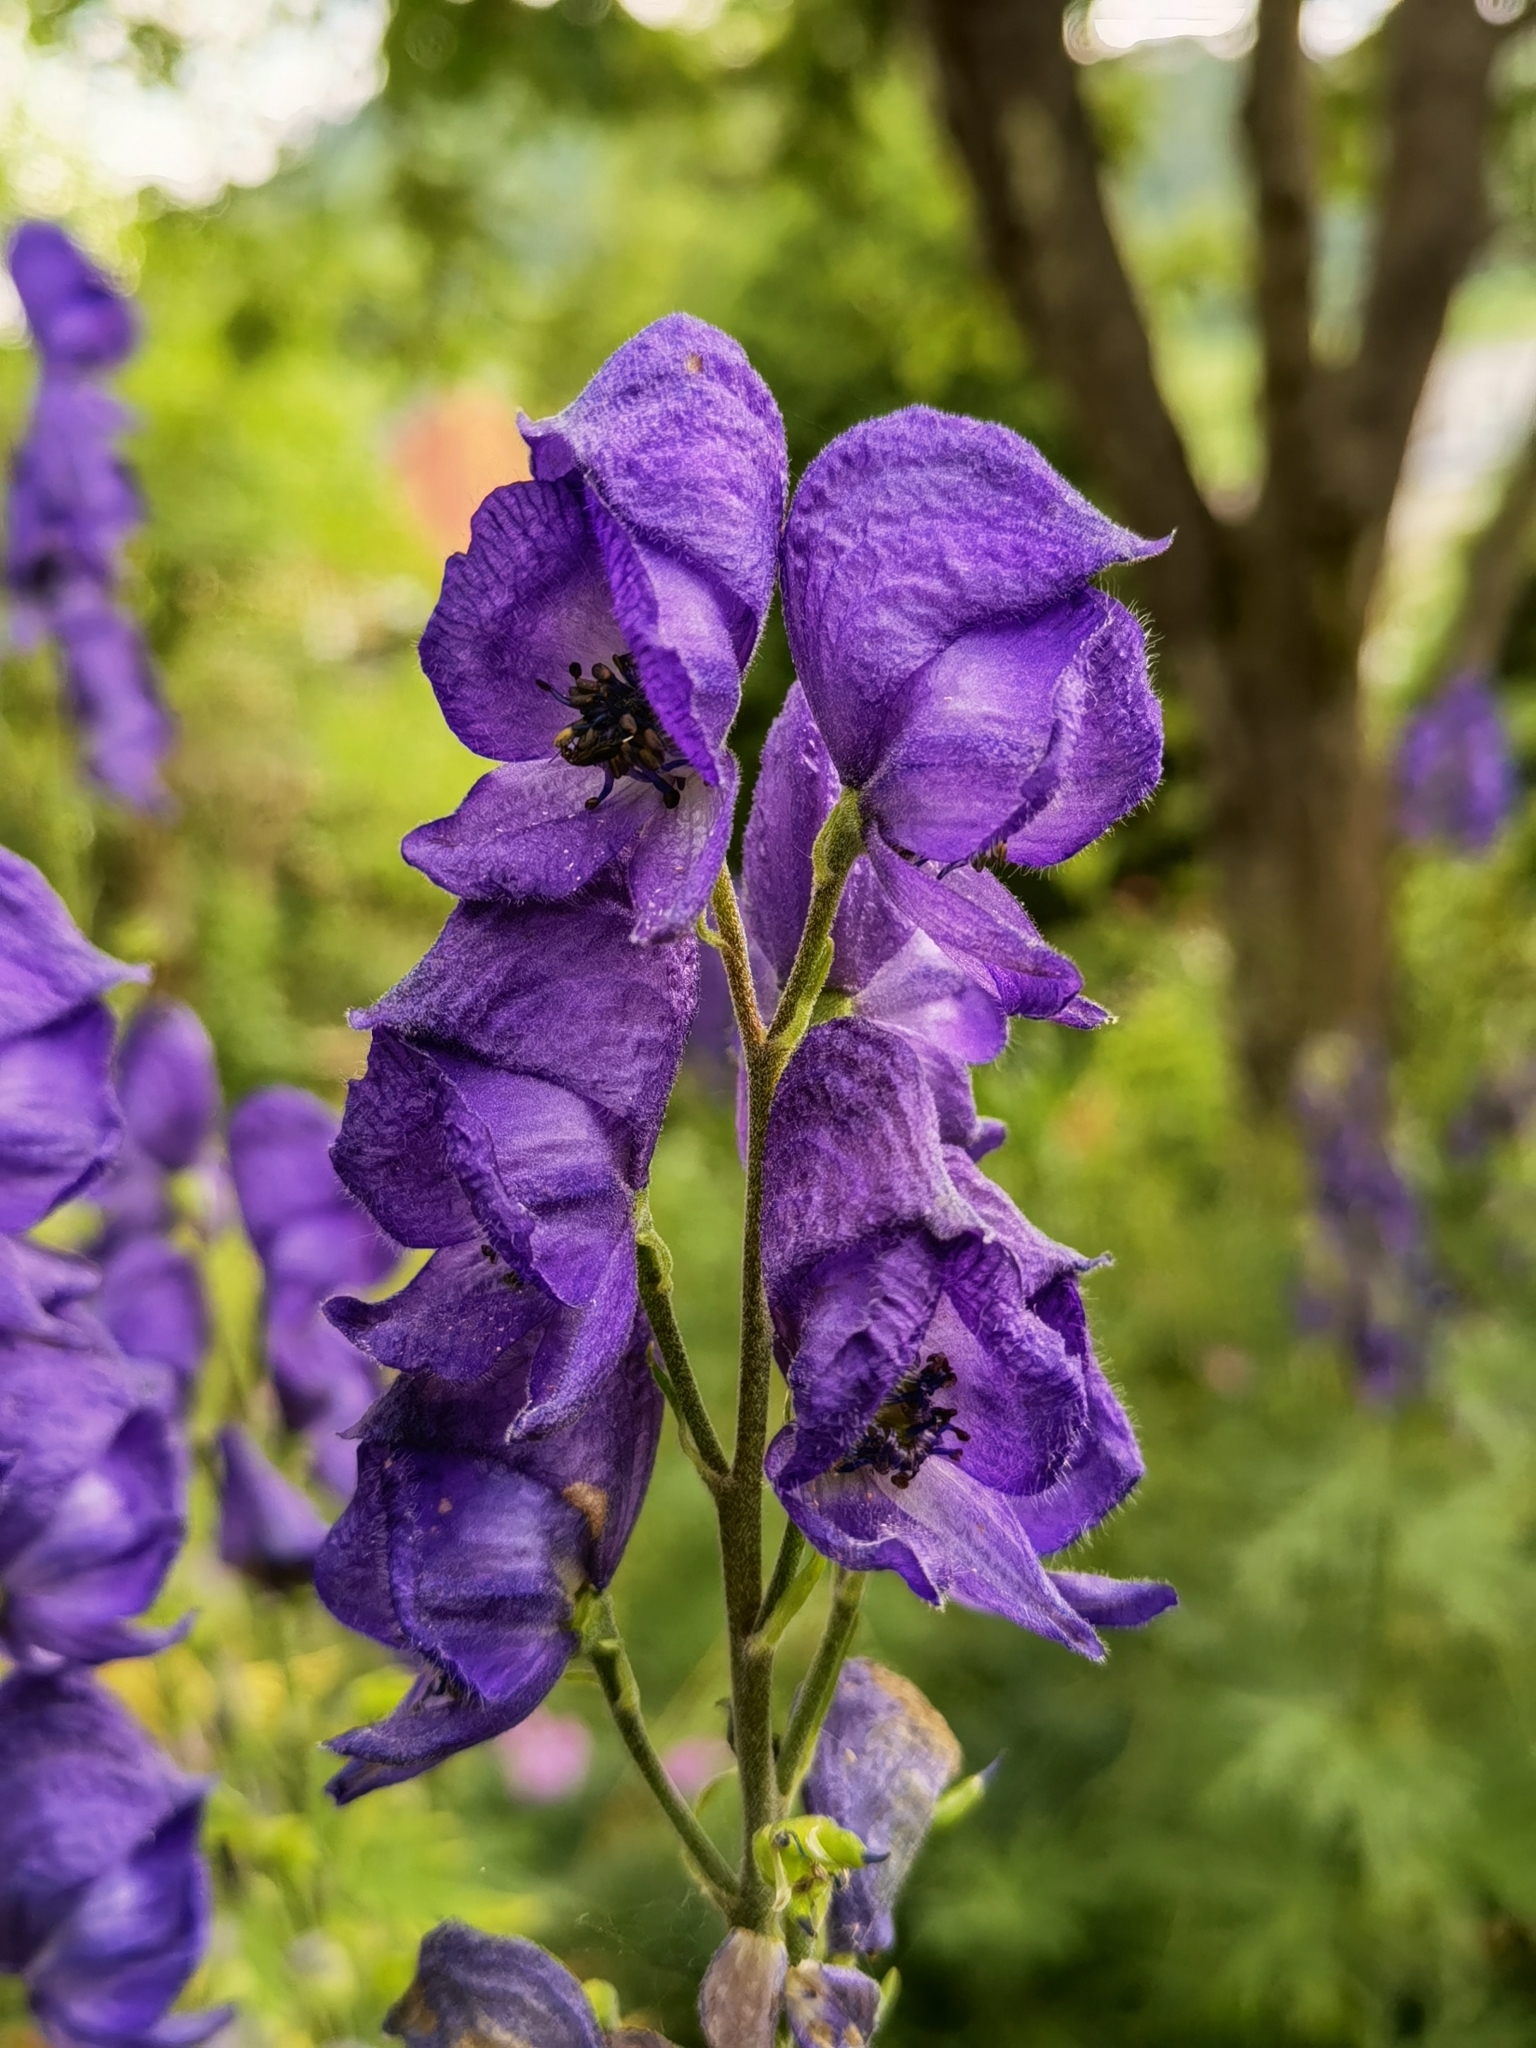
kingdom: Plantae
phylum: Tracheophyta
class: Magnoliopsida
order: Ranunculales
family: Ranunculaceae
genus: Aconitum
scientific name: Aconitum napellus
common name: Garden monkshood
